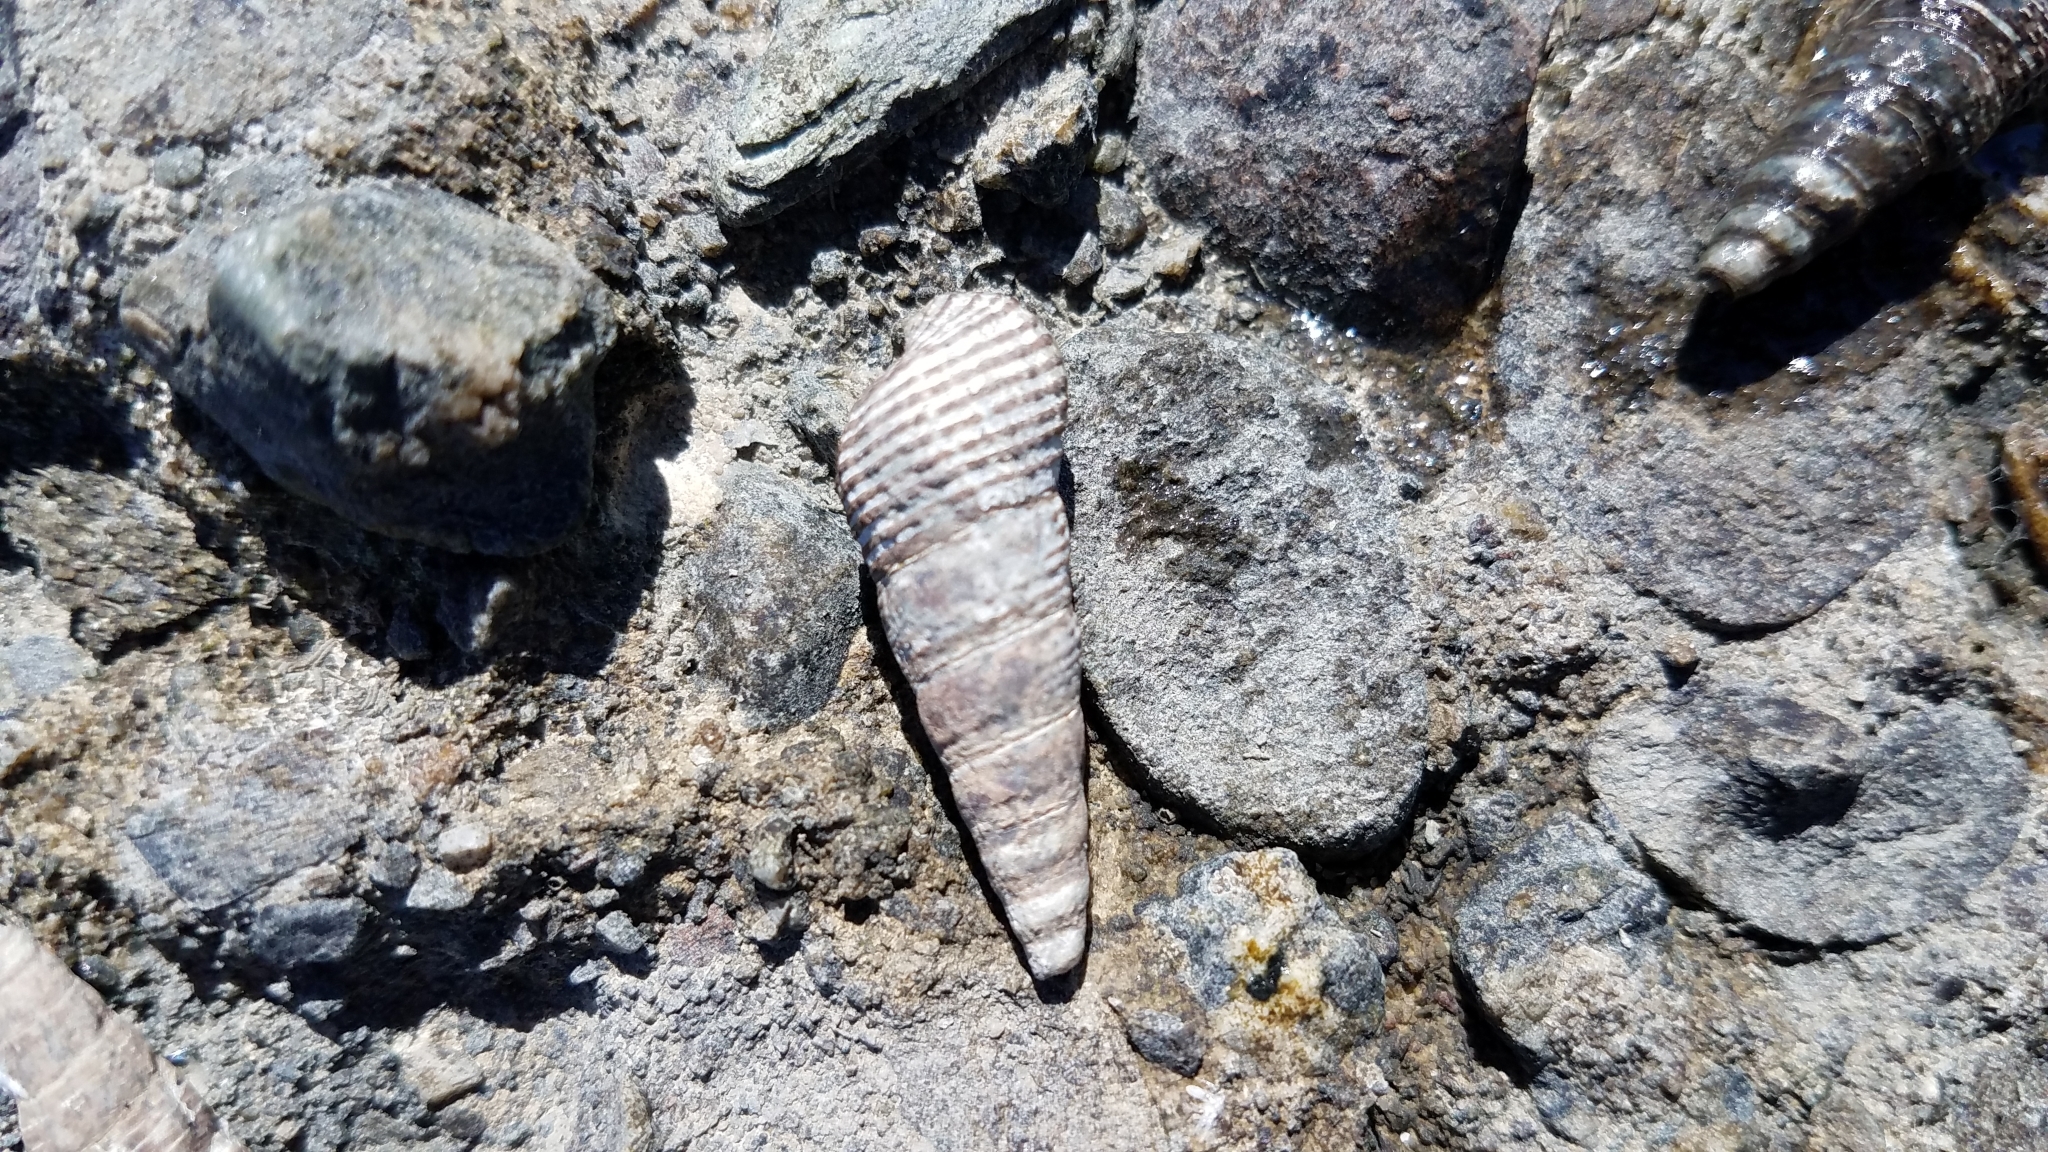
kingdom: Animalia
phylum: Mollusca
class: Gastropoda
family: Batillariidae
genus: Batillaria
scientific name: Batillaria attramentaria
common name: Japanese false cerith
